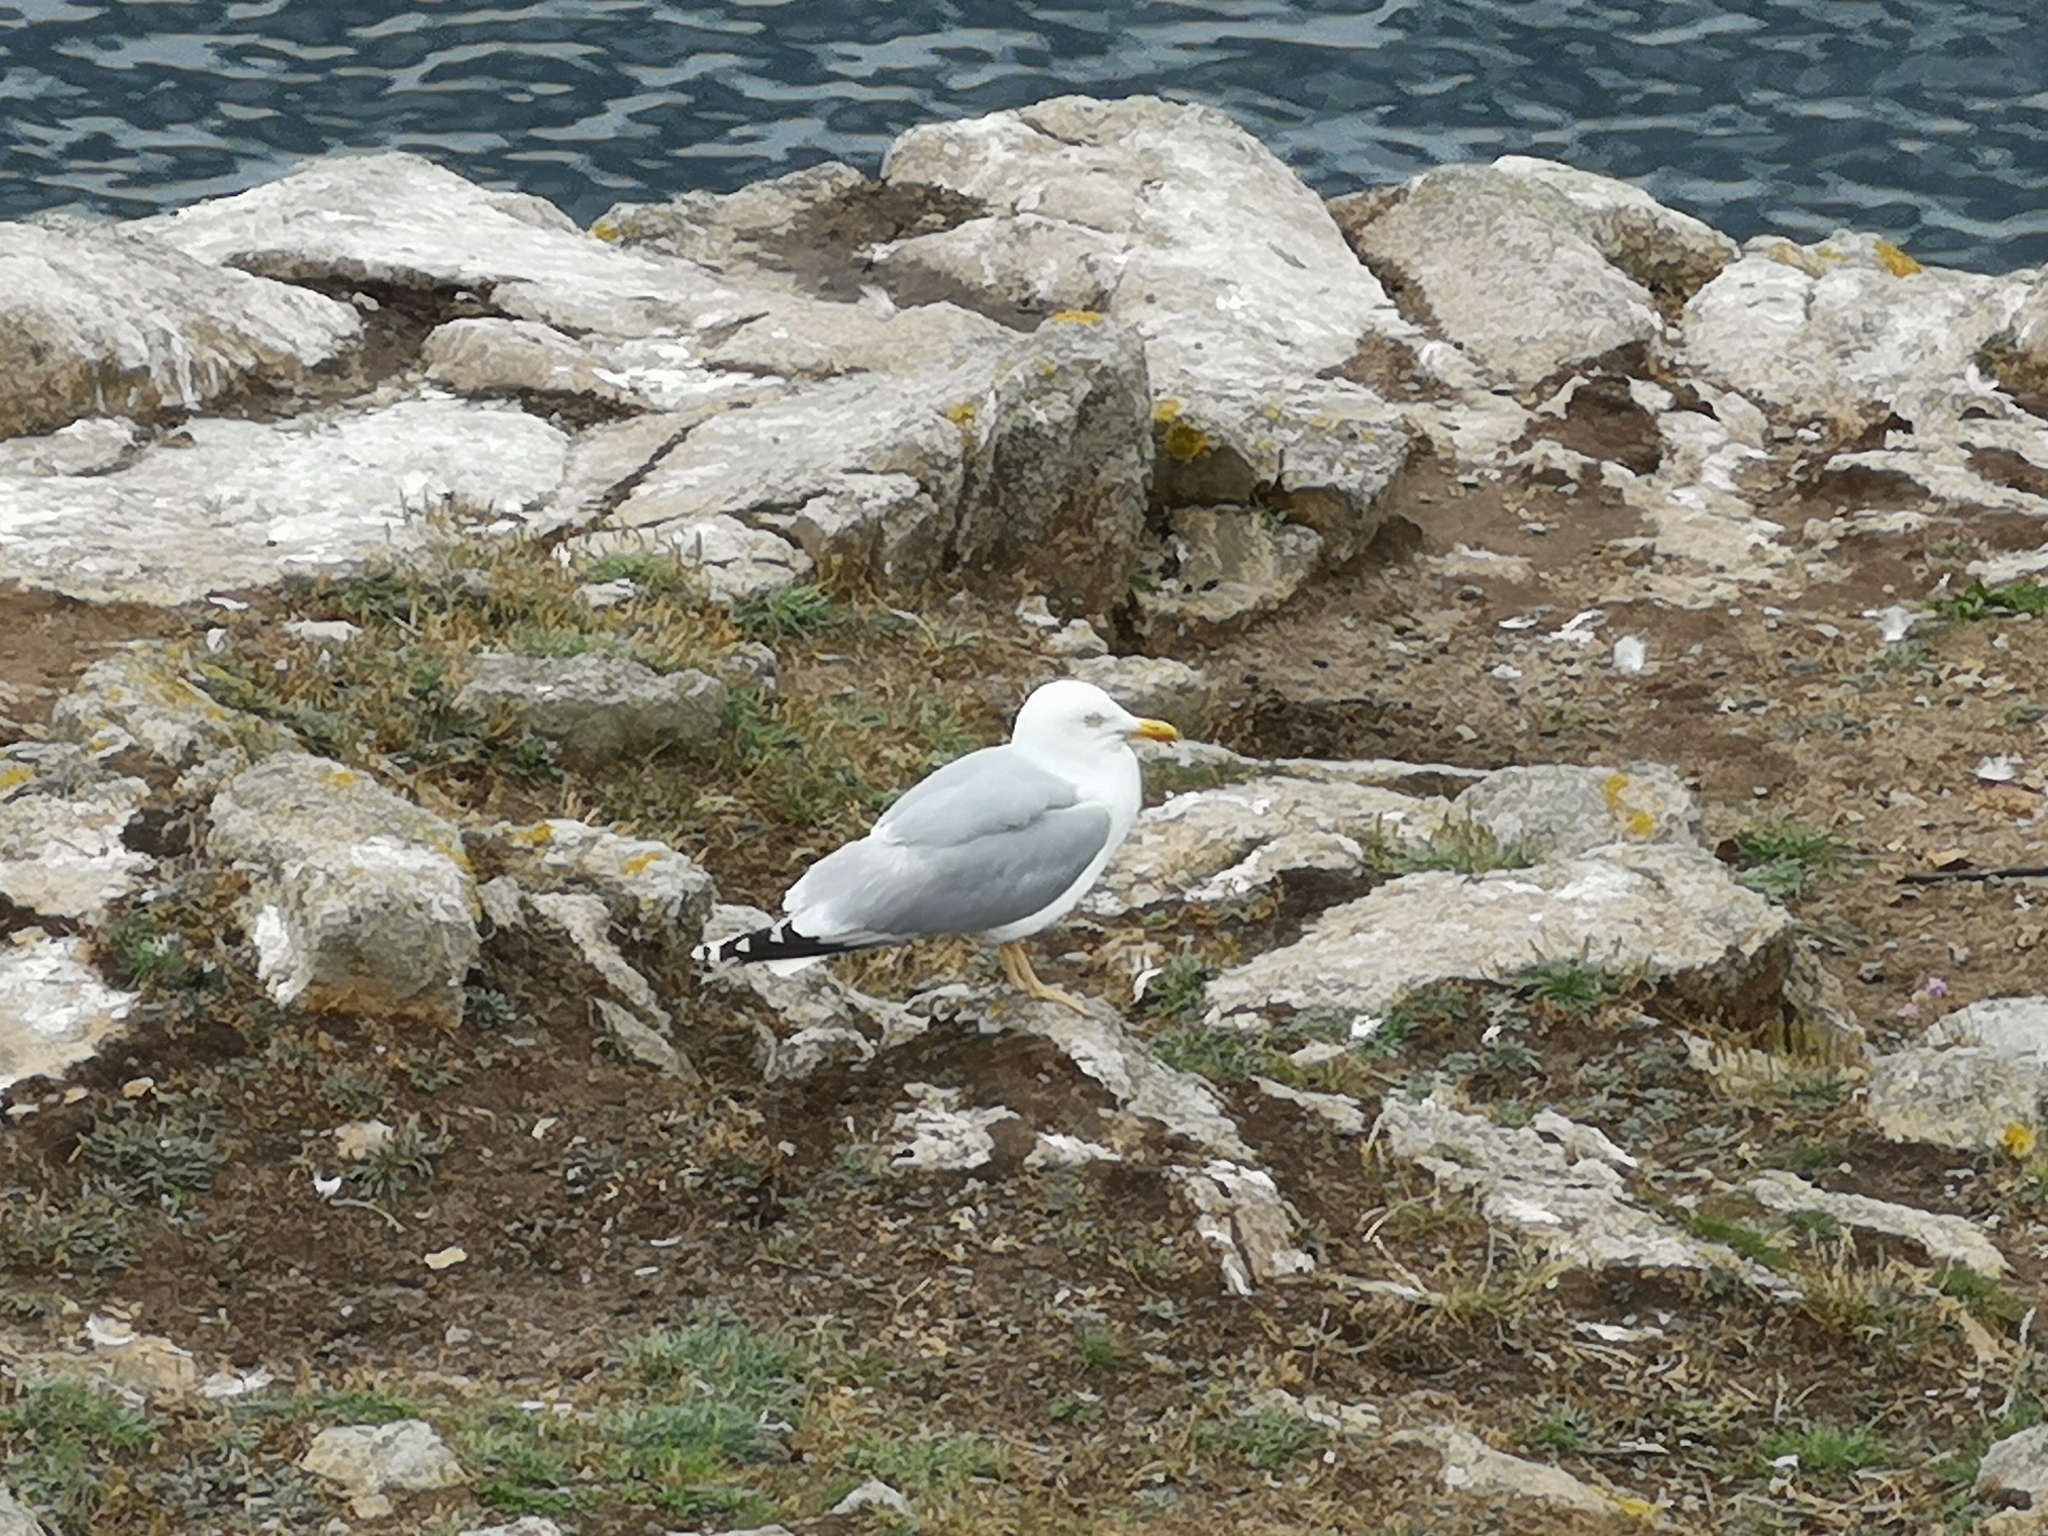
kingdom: Animalia
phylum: Chordata
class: Aves
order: Charadriiformes
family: Laridae
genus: Larus
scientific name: Larus canus
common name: Mew gull
